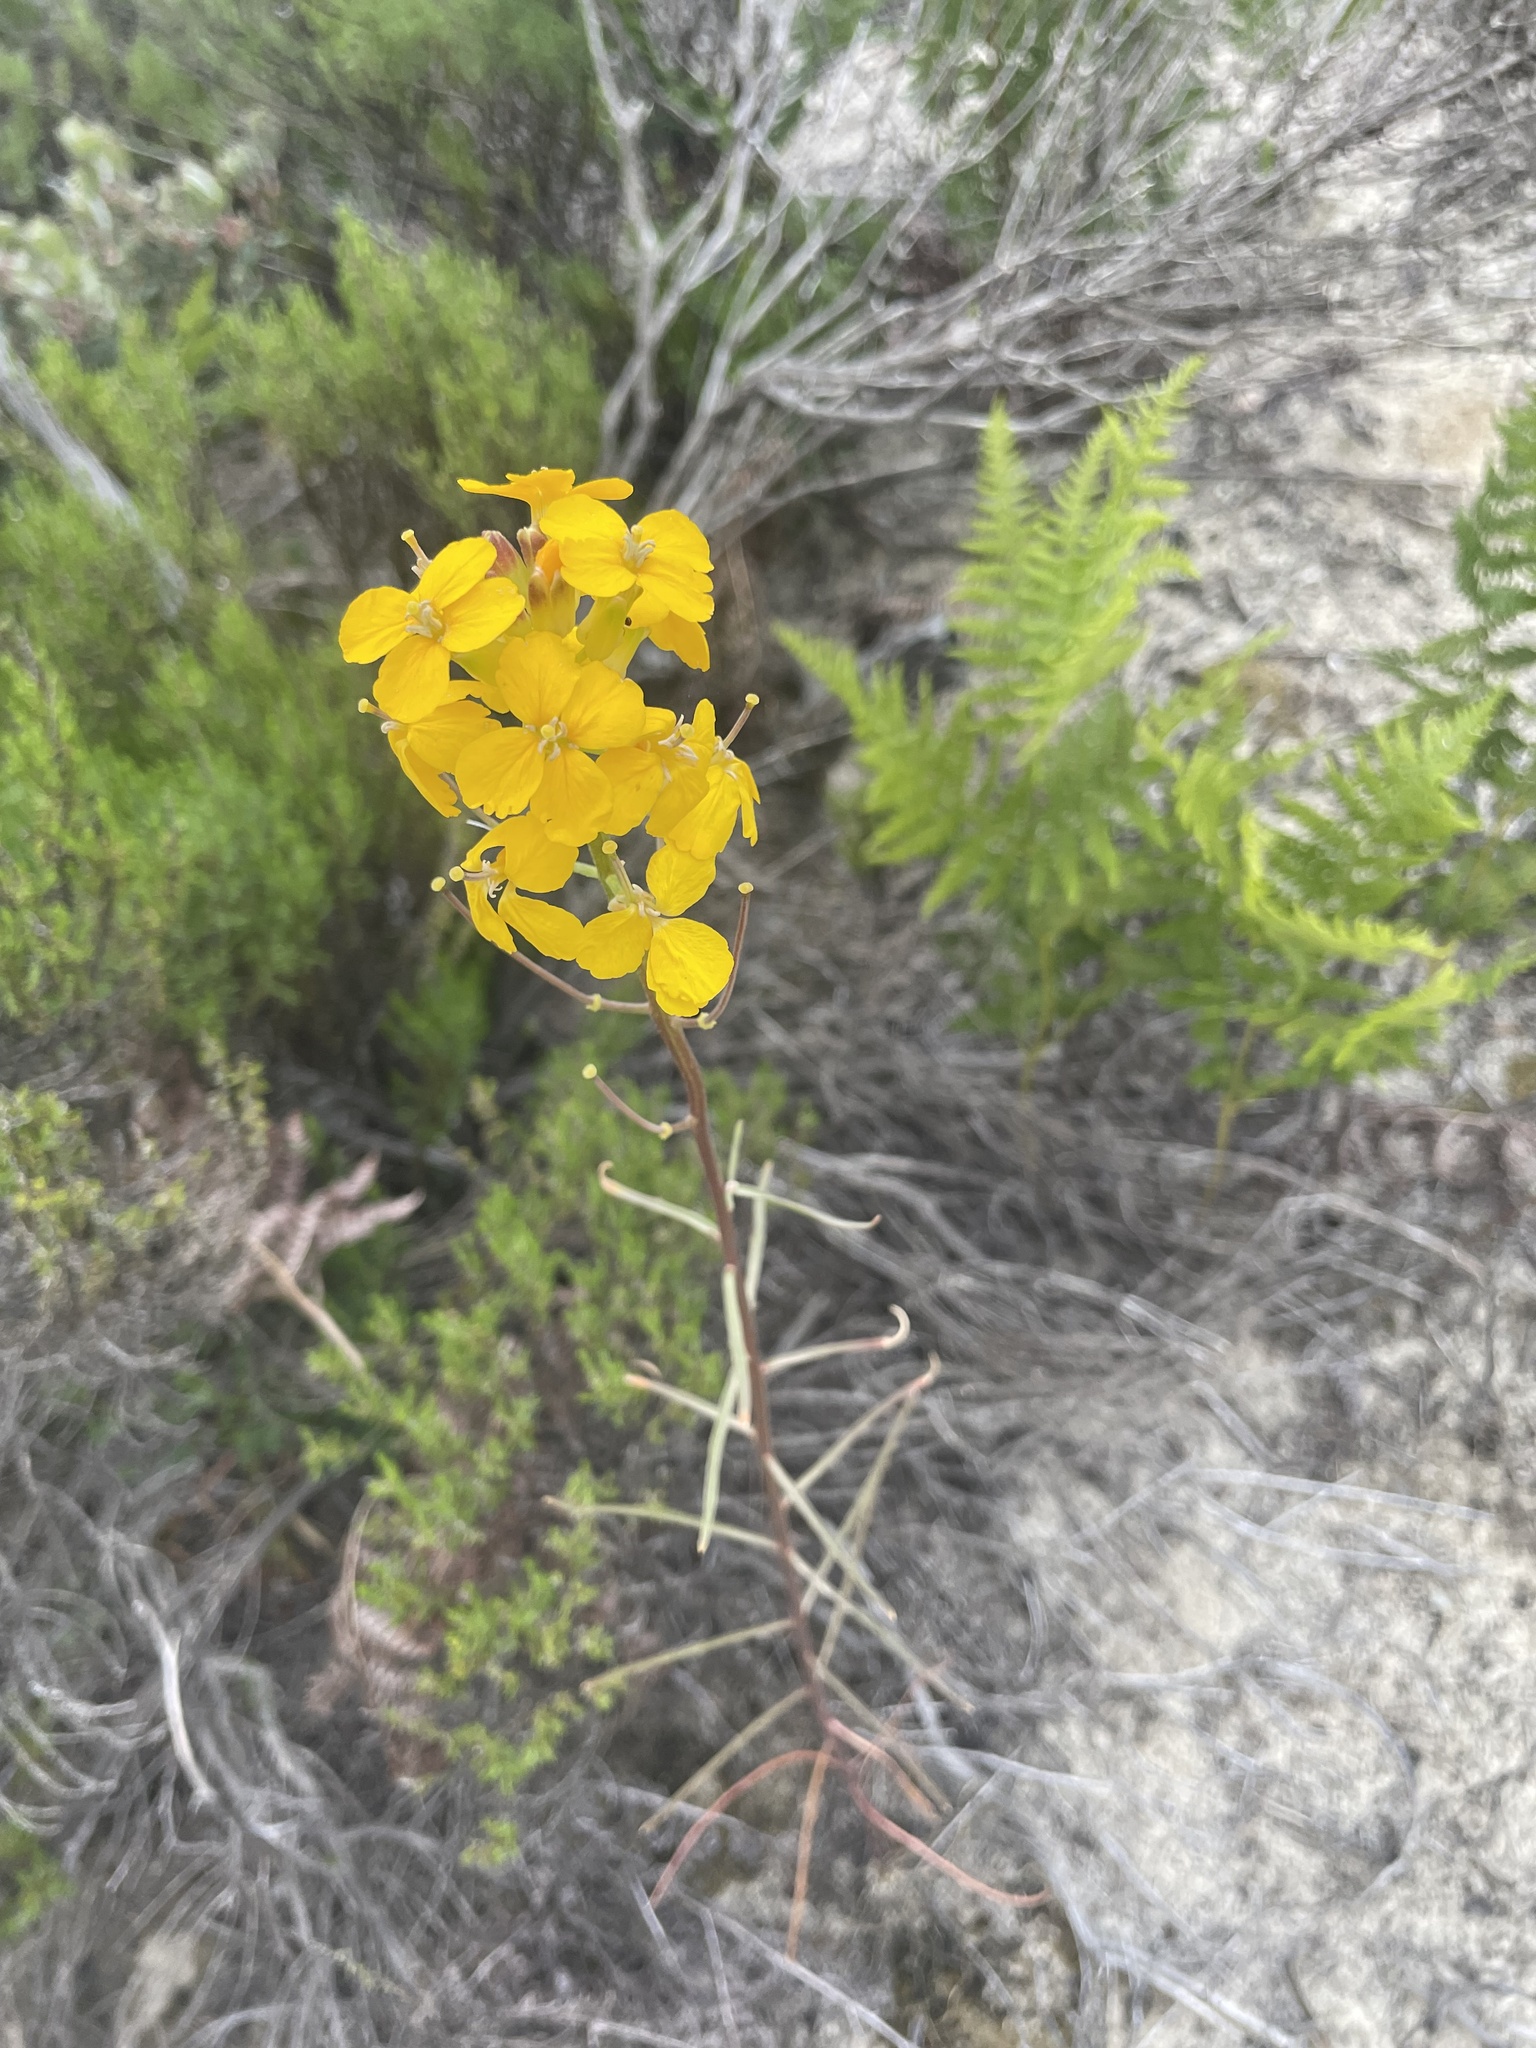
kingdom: Plantae
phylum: Tracheophyta
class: Magnoliopsida
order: Brassicales
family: Brassicaceae
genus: Erysimum
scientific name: Erysimum teretifolium
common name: Ben lomond wallflower
